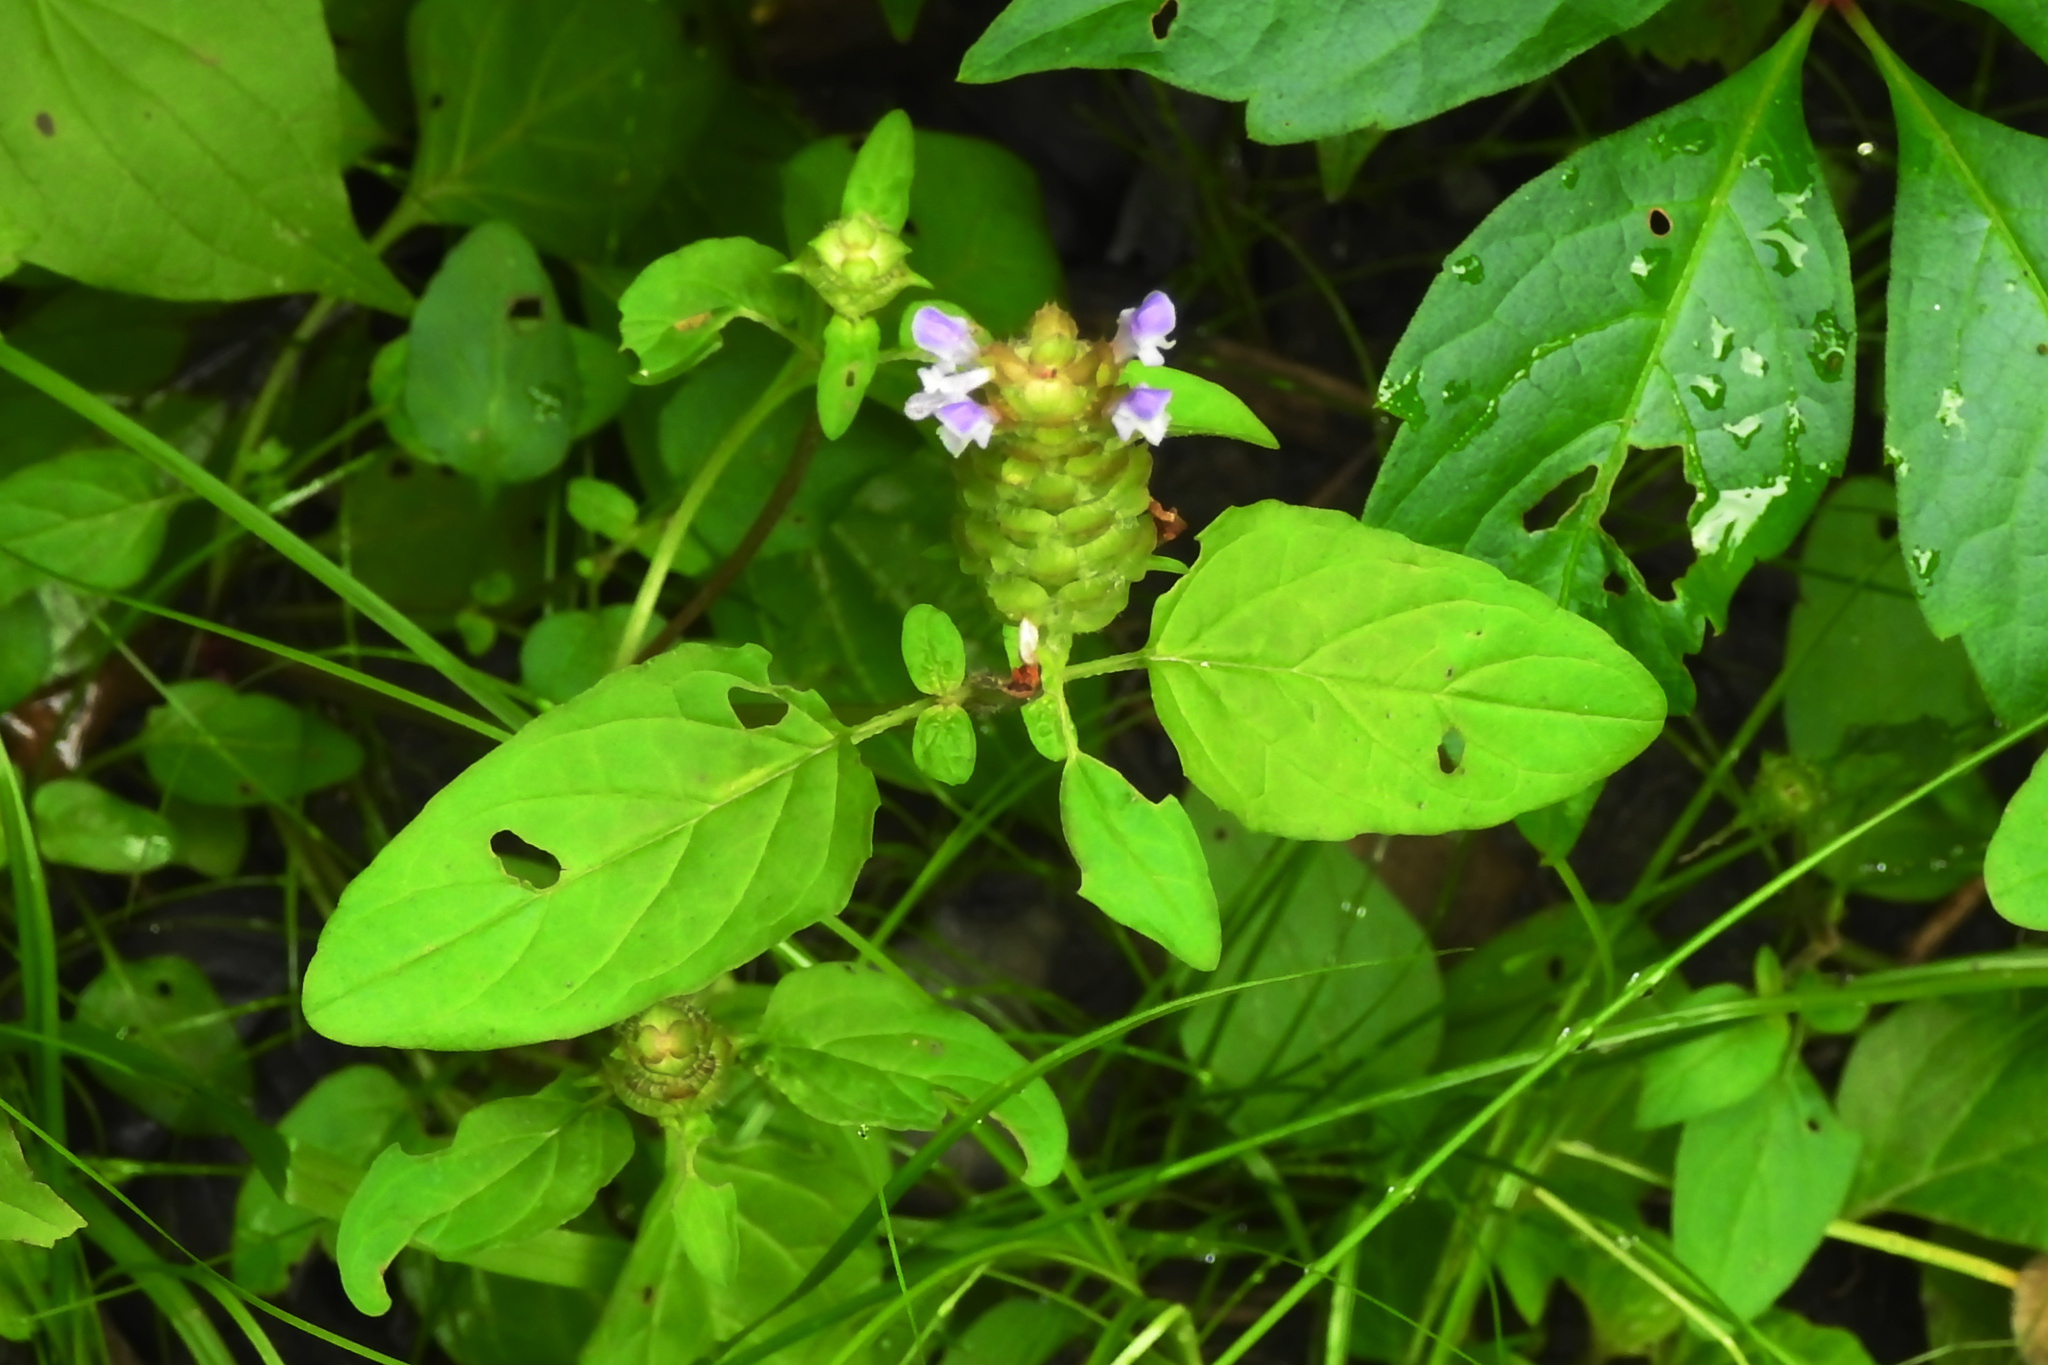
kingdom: Plantae
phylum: Tracheophyta
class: Magnoliopsida
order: Lamiales
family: Lamiaceae
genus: Prunella
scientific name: Prunella vulgaris
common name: Heal-all
